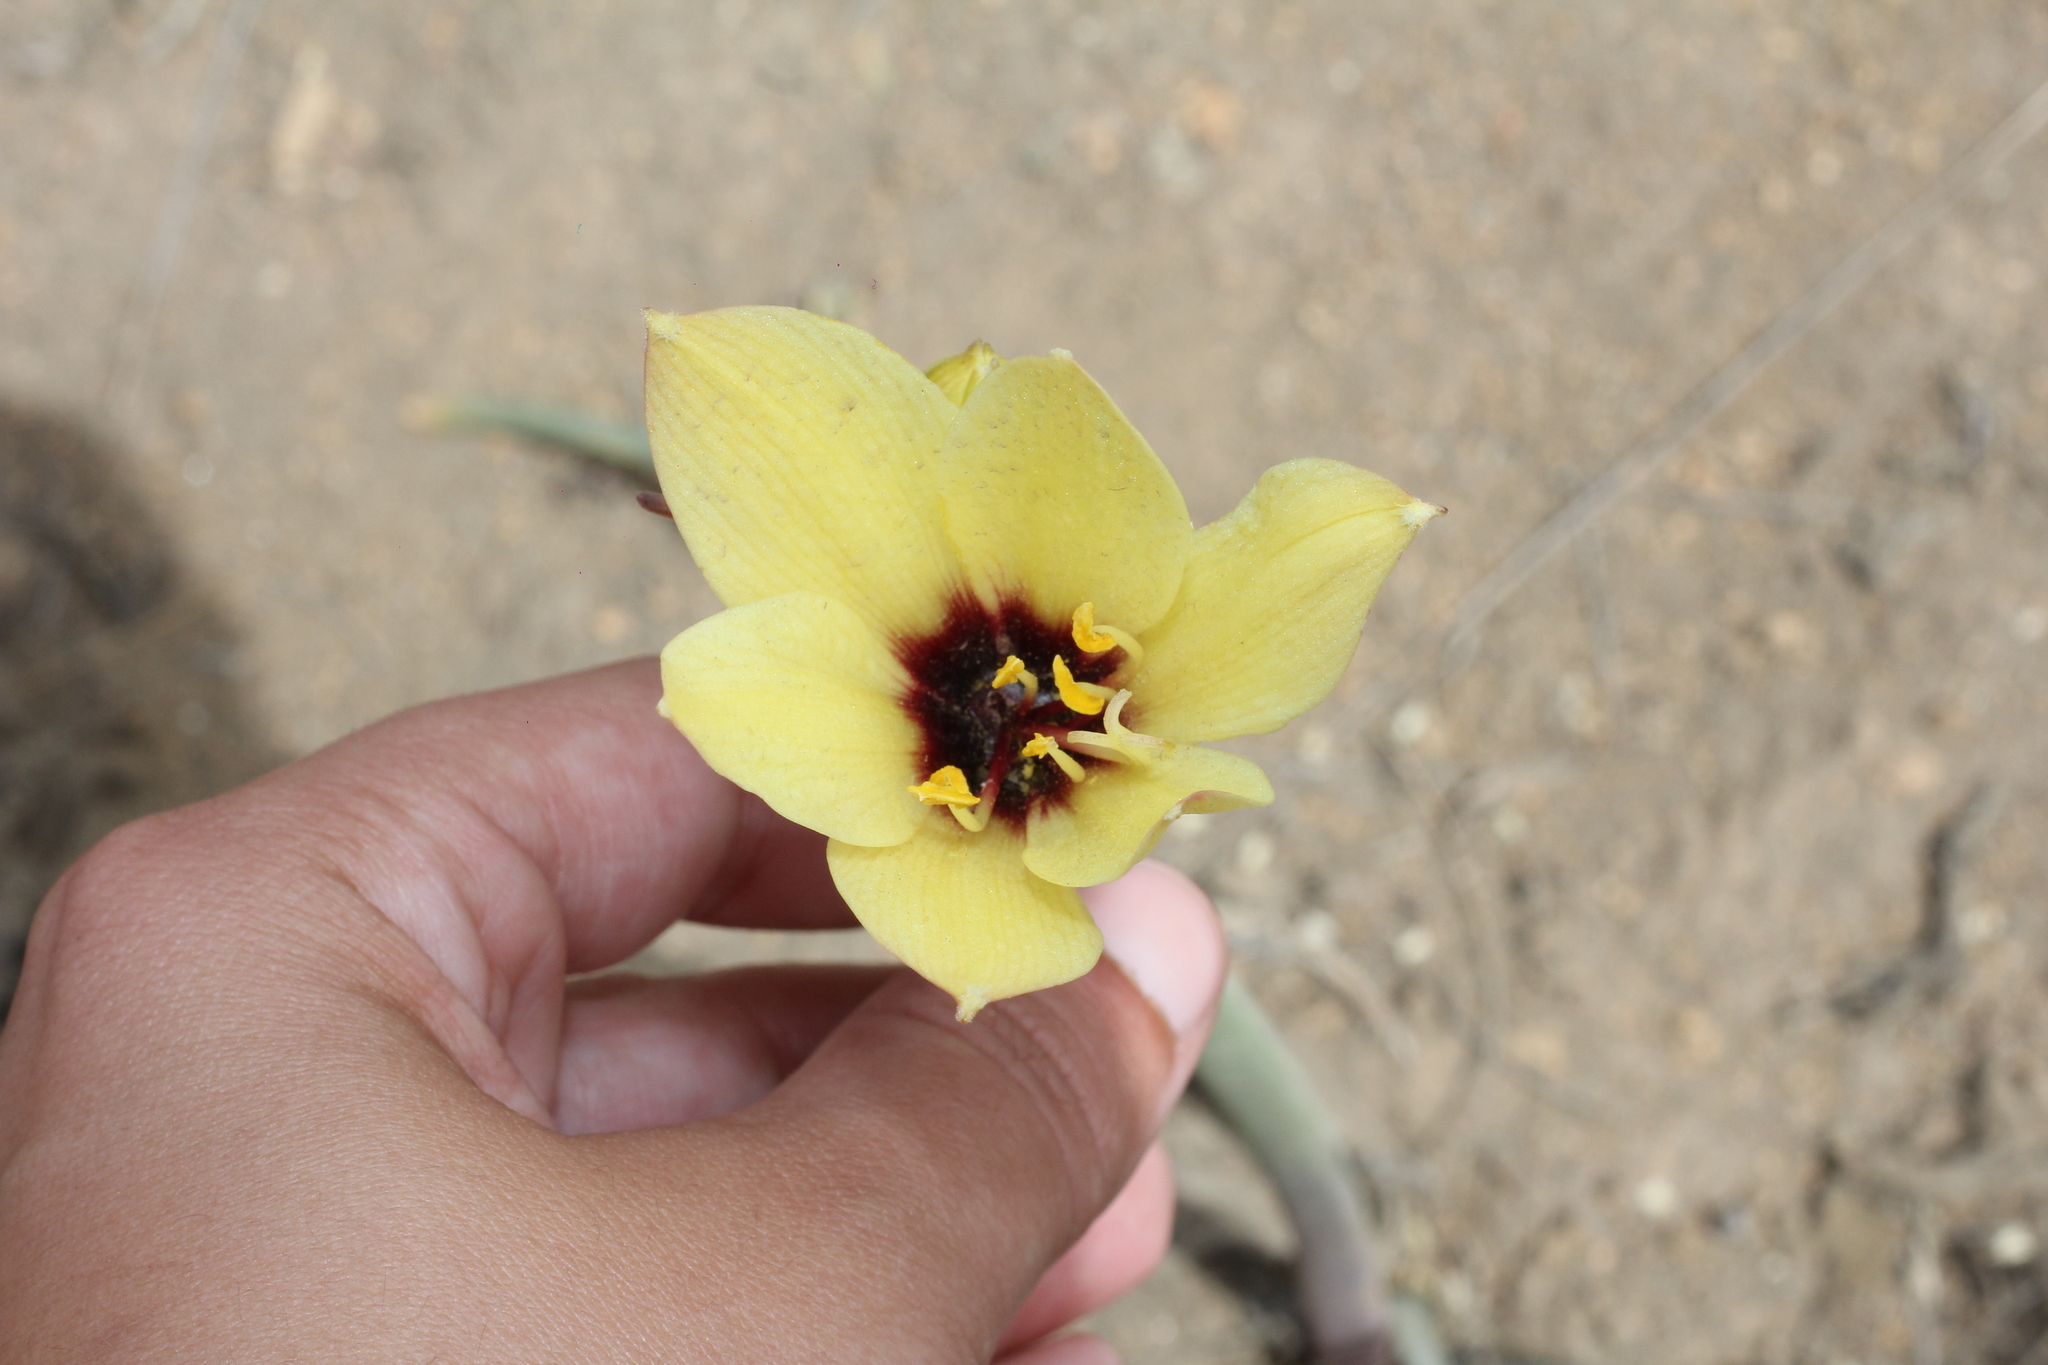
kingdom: Plantae
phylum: Tracheophyta
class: Liliopsida
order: Asparagales
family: Amaryllidaceae
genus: Zephyranthes
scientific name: Zephyranthes gilliesiana
